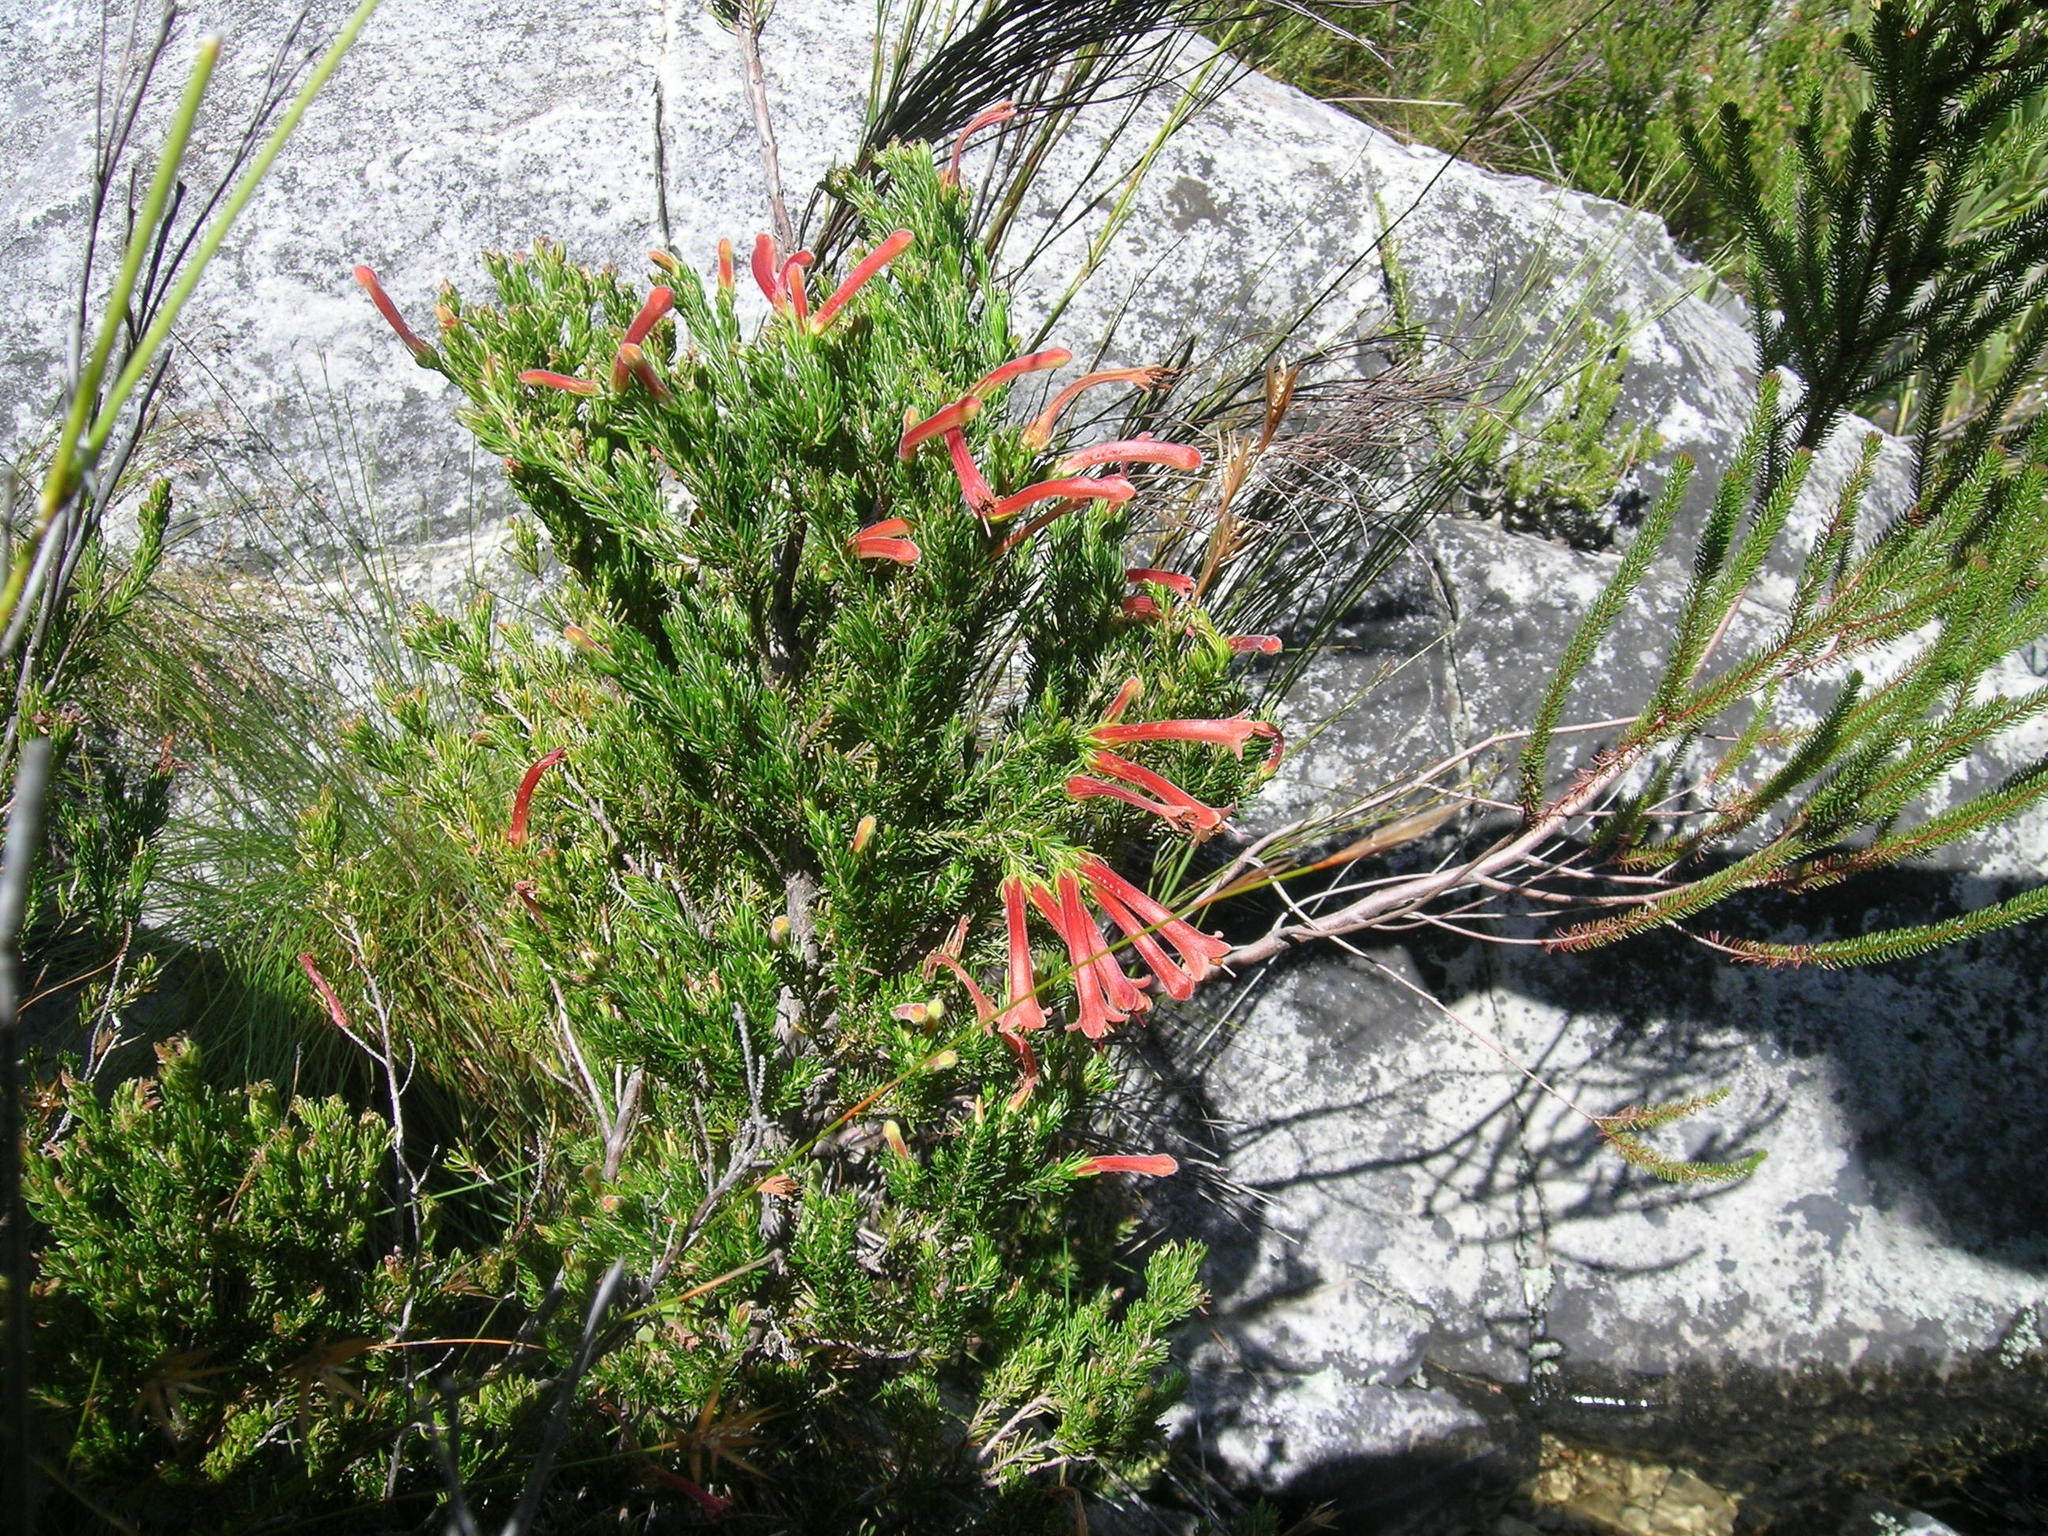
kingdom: Plantae
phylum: Tracheophyta
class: Magnoliopsida
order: Ericales
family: Ericaceae
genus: Erica
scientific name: Erica curviflora
